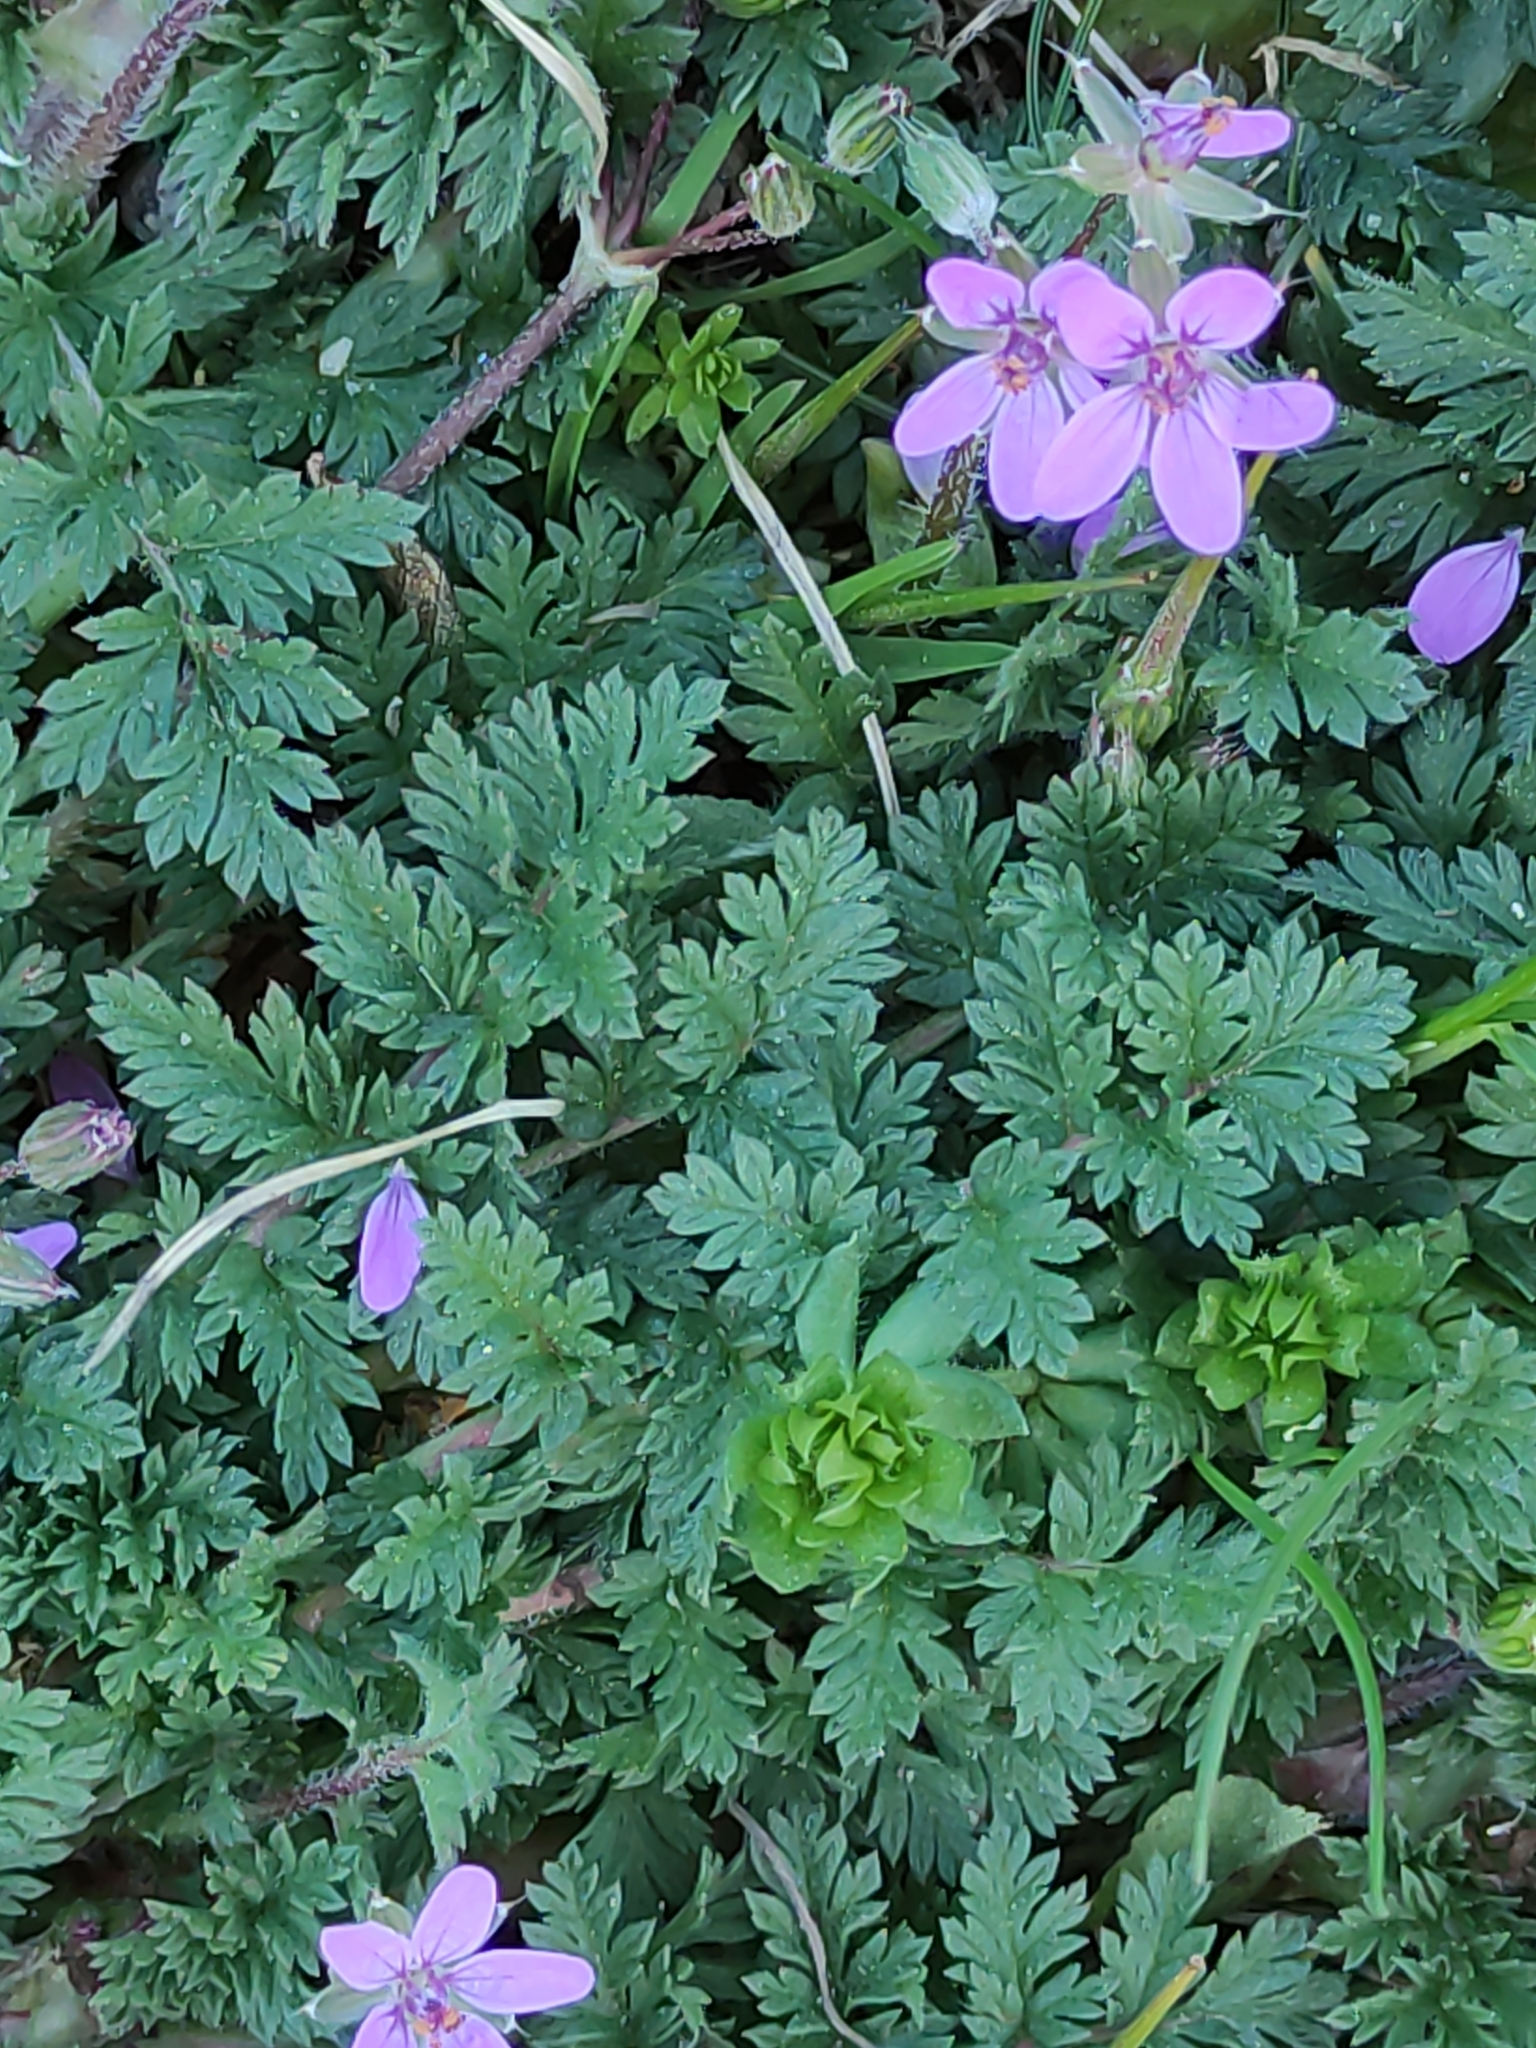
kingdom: Plantae
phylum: Tracheophyta
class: Magnoliopsida
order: Geraniales
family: Geraniaceae
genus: Erodium
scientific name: Erodium cicutarium
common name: Common stork's-bill
